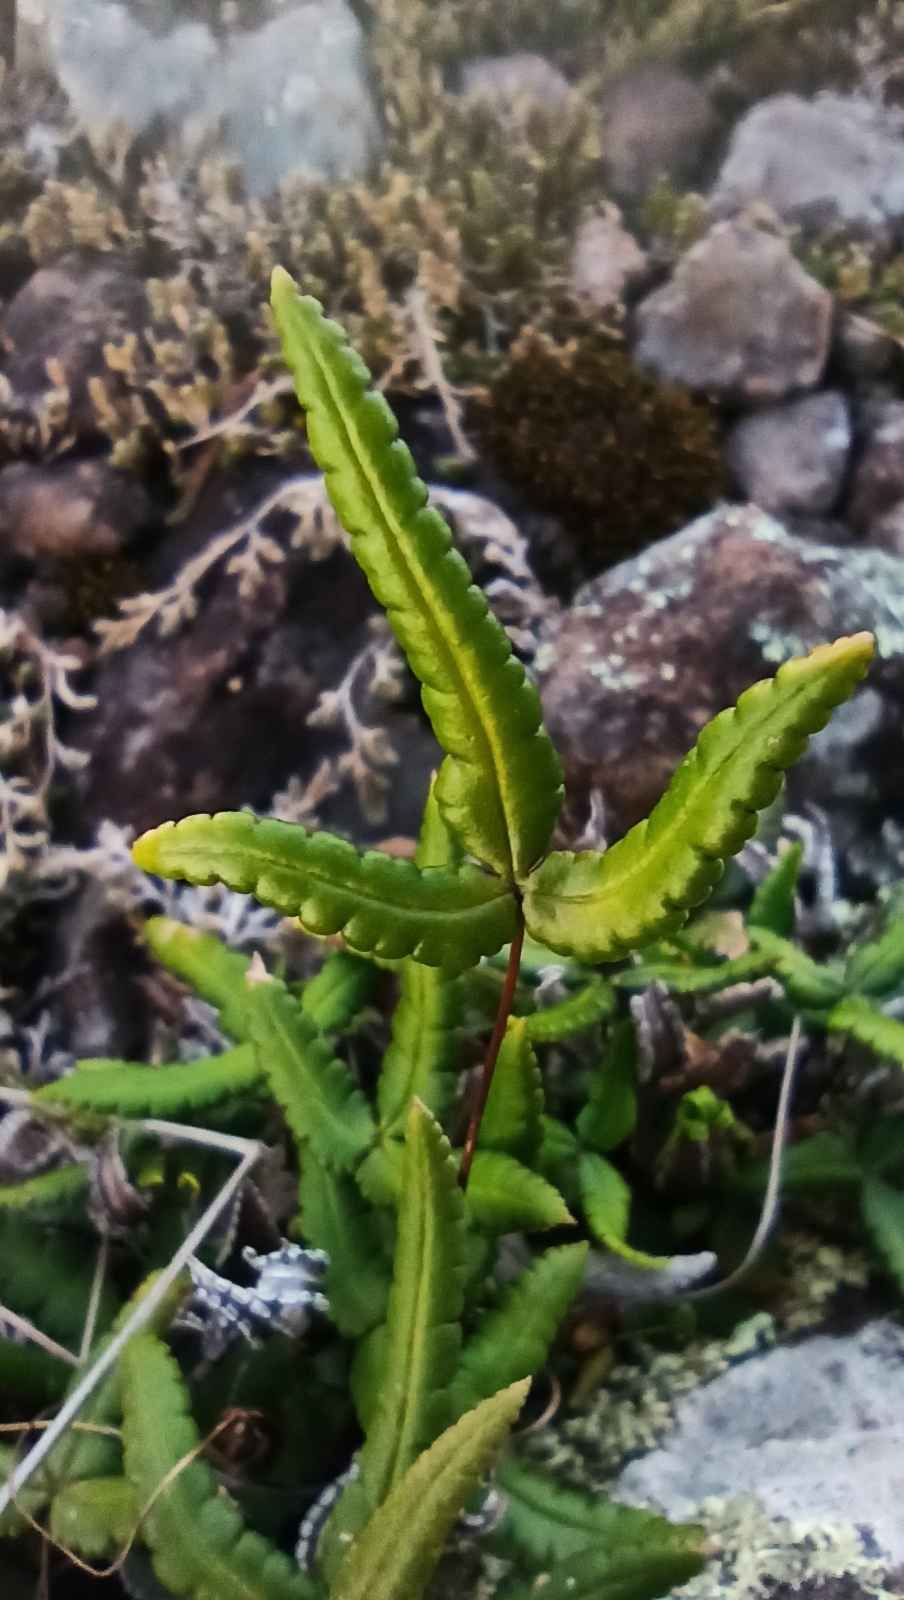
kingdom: Plantae
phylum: Tracheophyta
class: Polypodiopsida
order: Polypodiales
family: Pteridaceae
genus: Doryopteris
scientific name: Doryopteris triphylla
